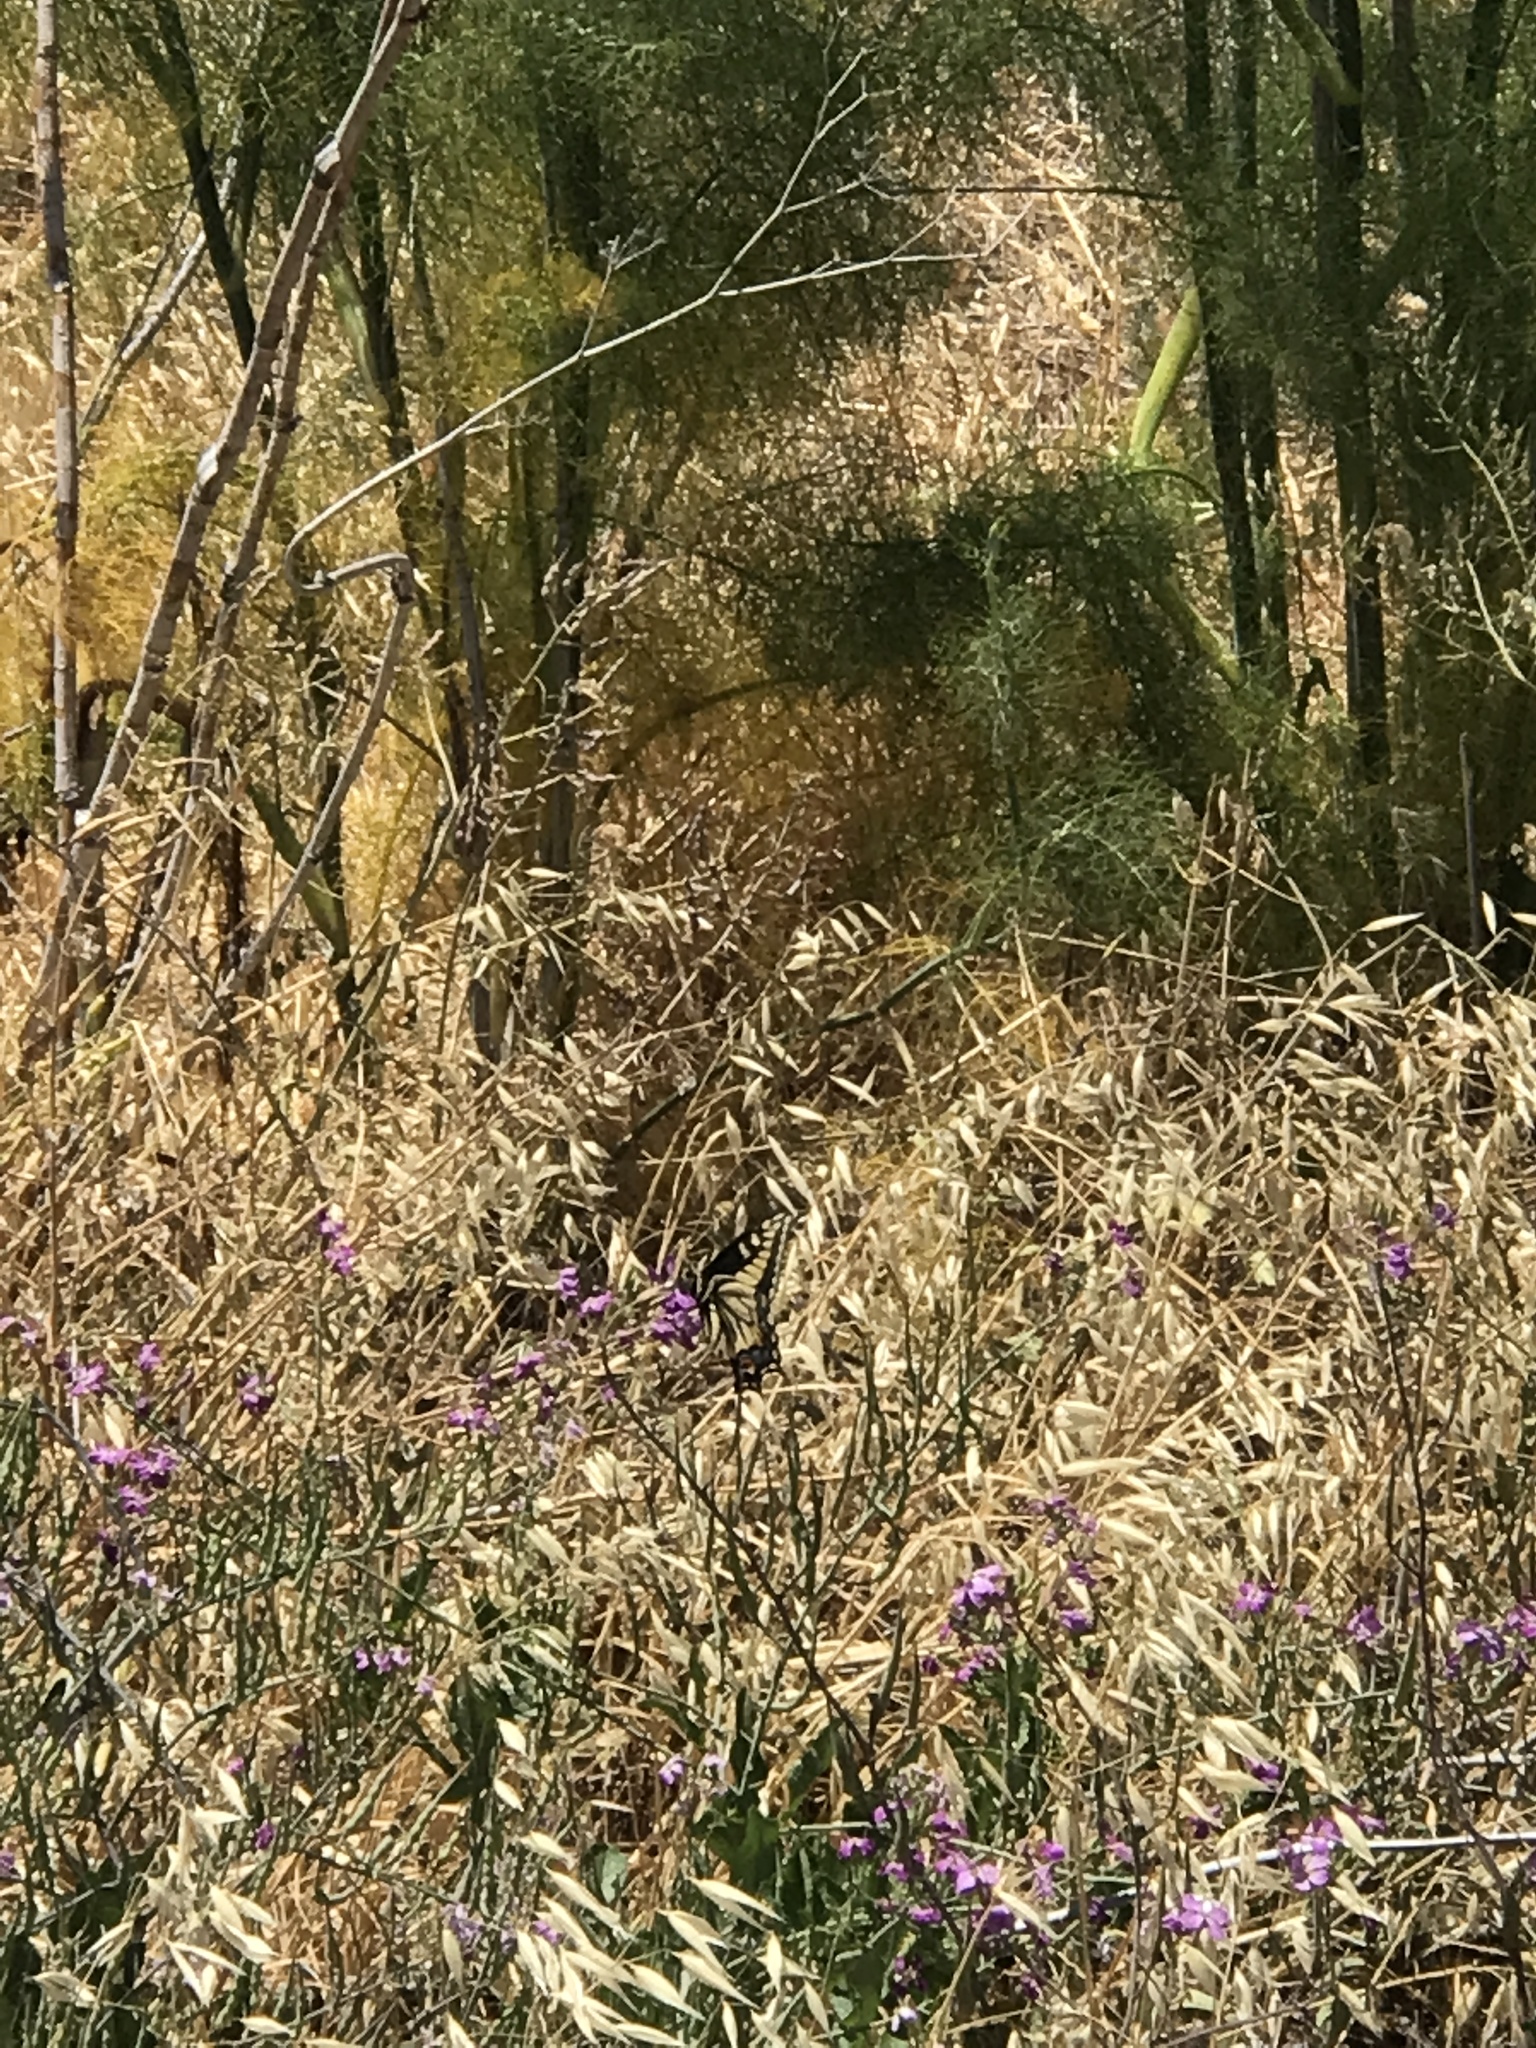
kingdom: Animalia
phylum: Arthropoda
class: Insecta
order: Lepidoptera
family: Papilionidae
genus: Papilio
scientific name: Papilio zelicaon
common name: Anise swallowtail
